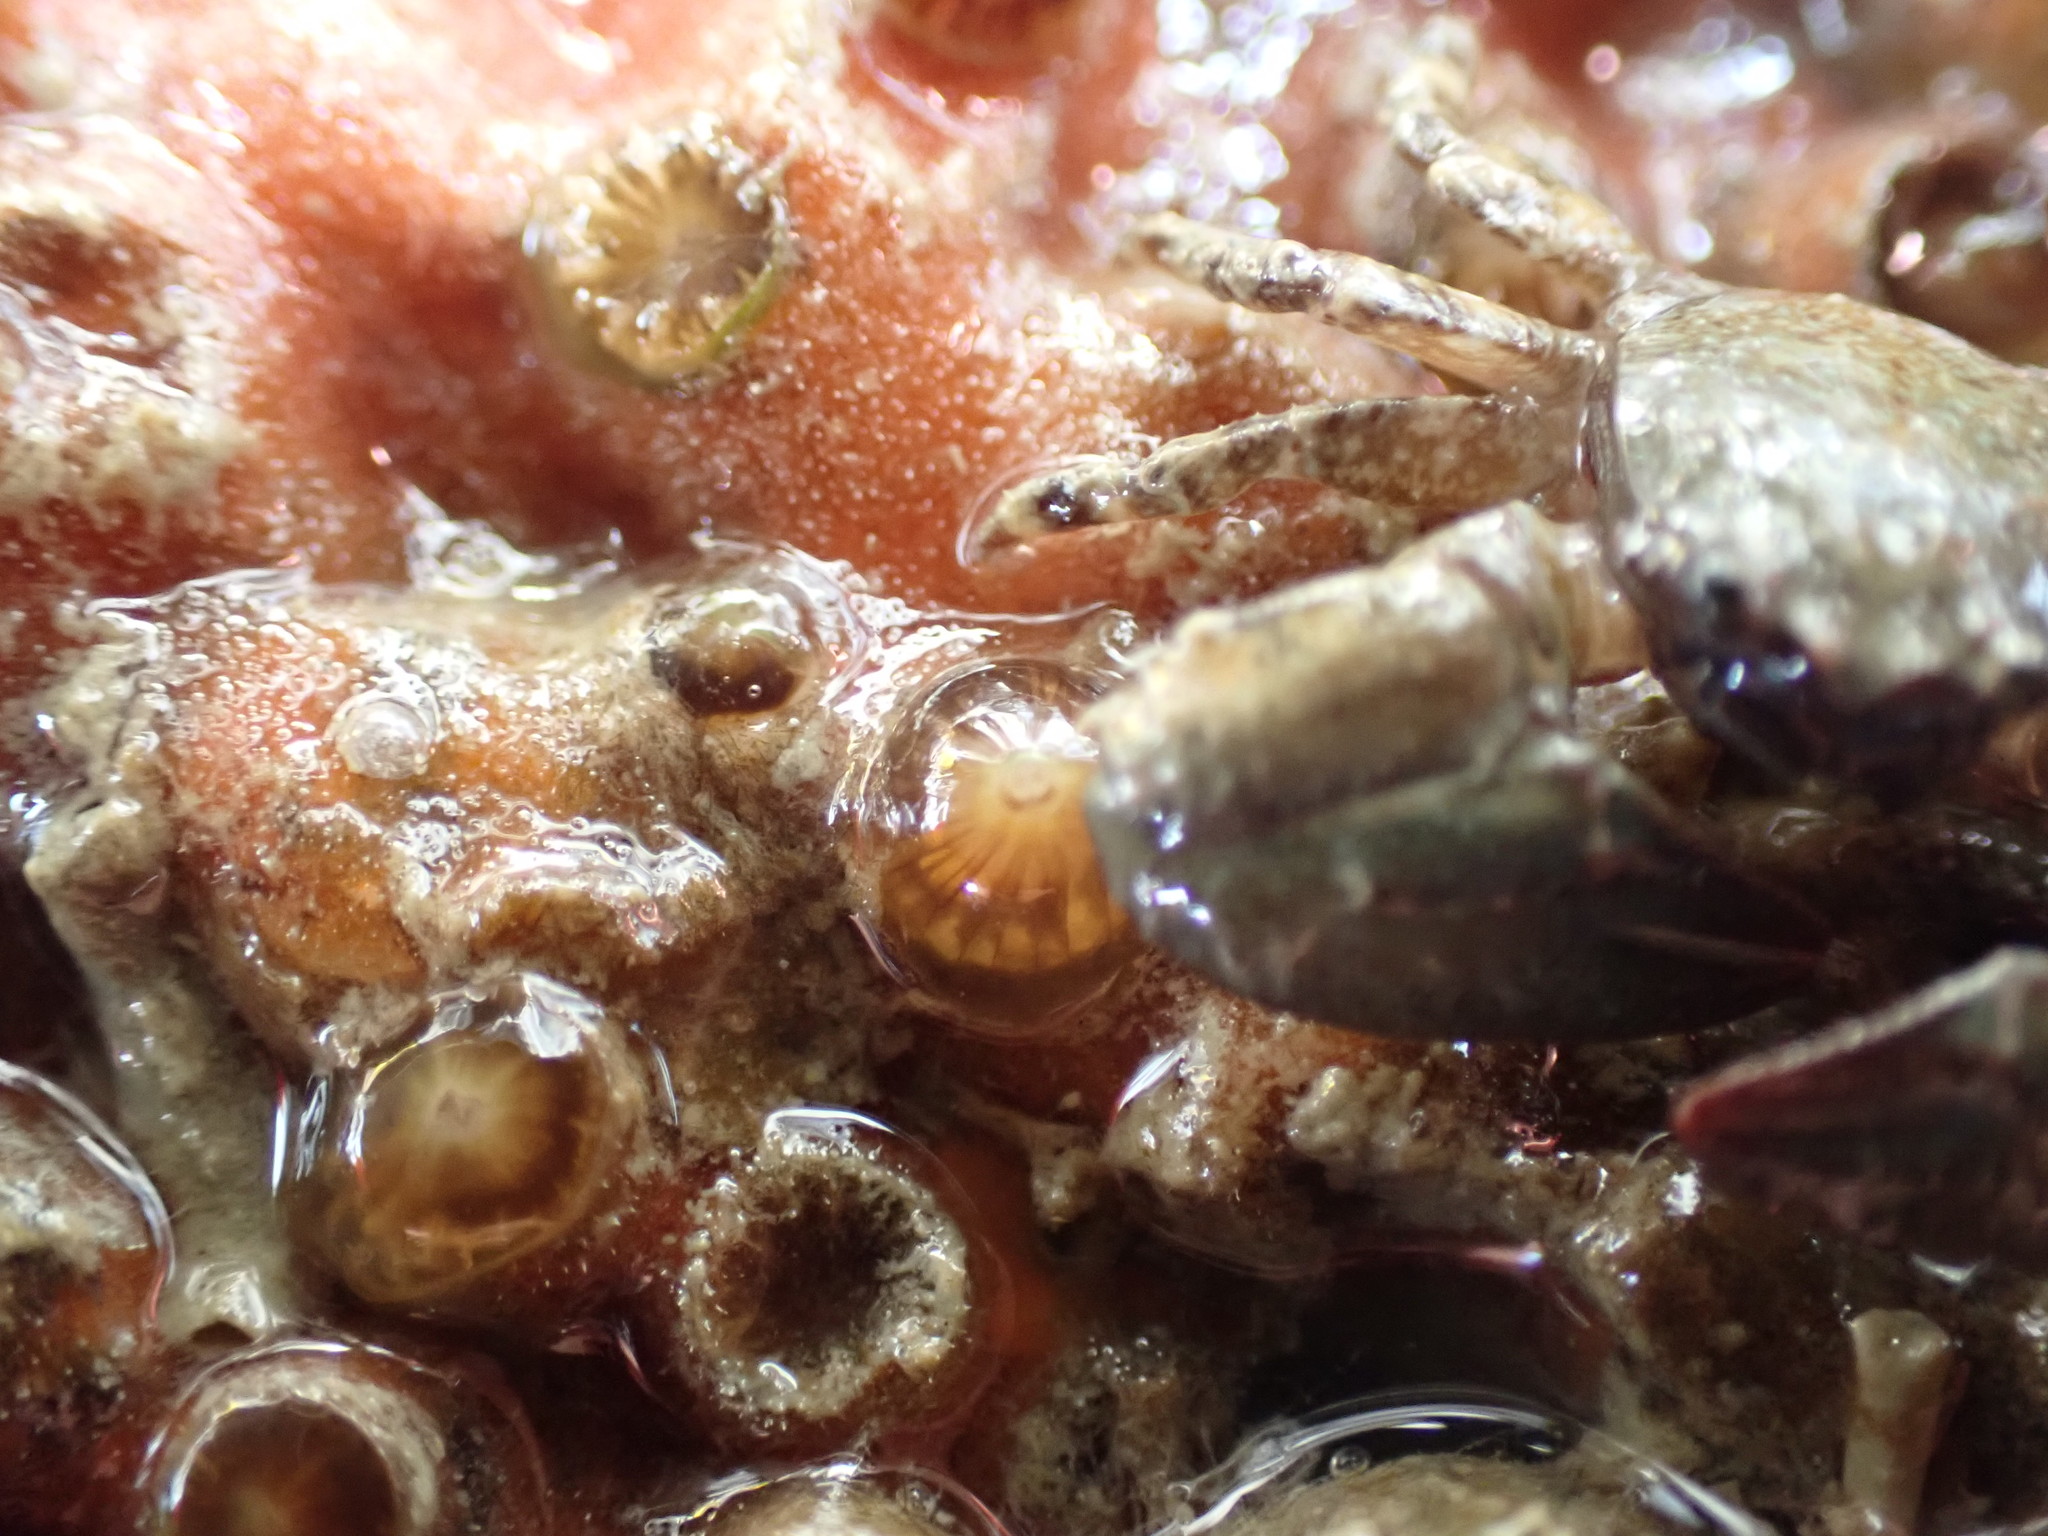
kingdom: Animalia
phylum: Cnidaria
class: Anthozoa
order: Scleractinia
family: Rhizangiidae
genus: Culicia
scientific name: Culicia rubeola
